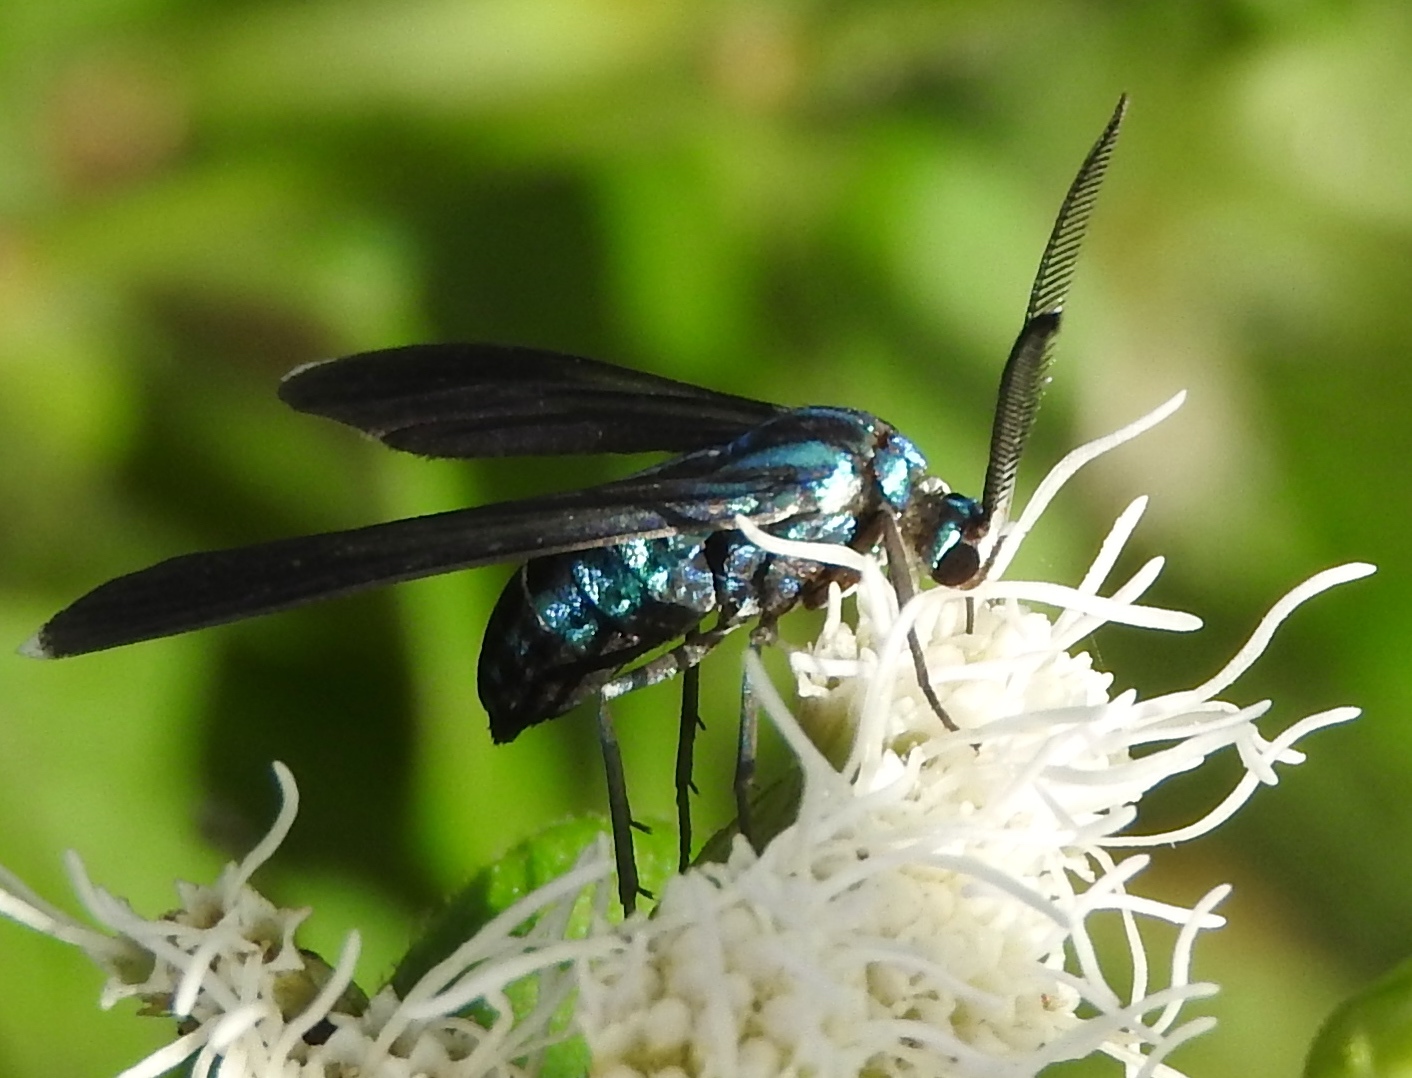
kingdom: Animalia
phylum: Arthropoda
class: Insecta
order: Lepidoptera
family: Erebidae
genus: Uranophora
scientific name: Uranophora leucotela
